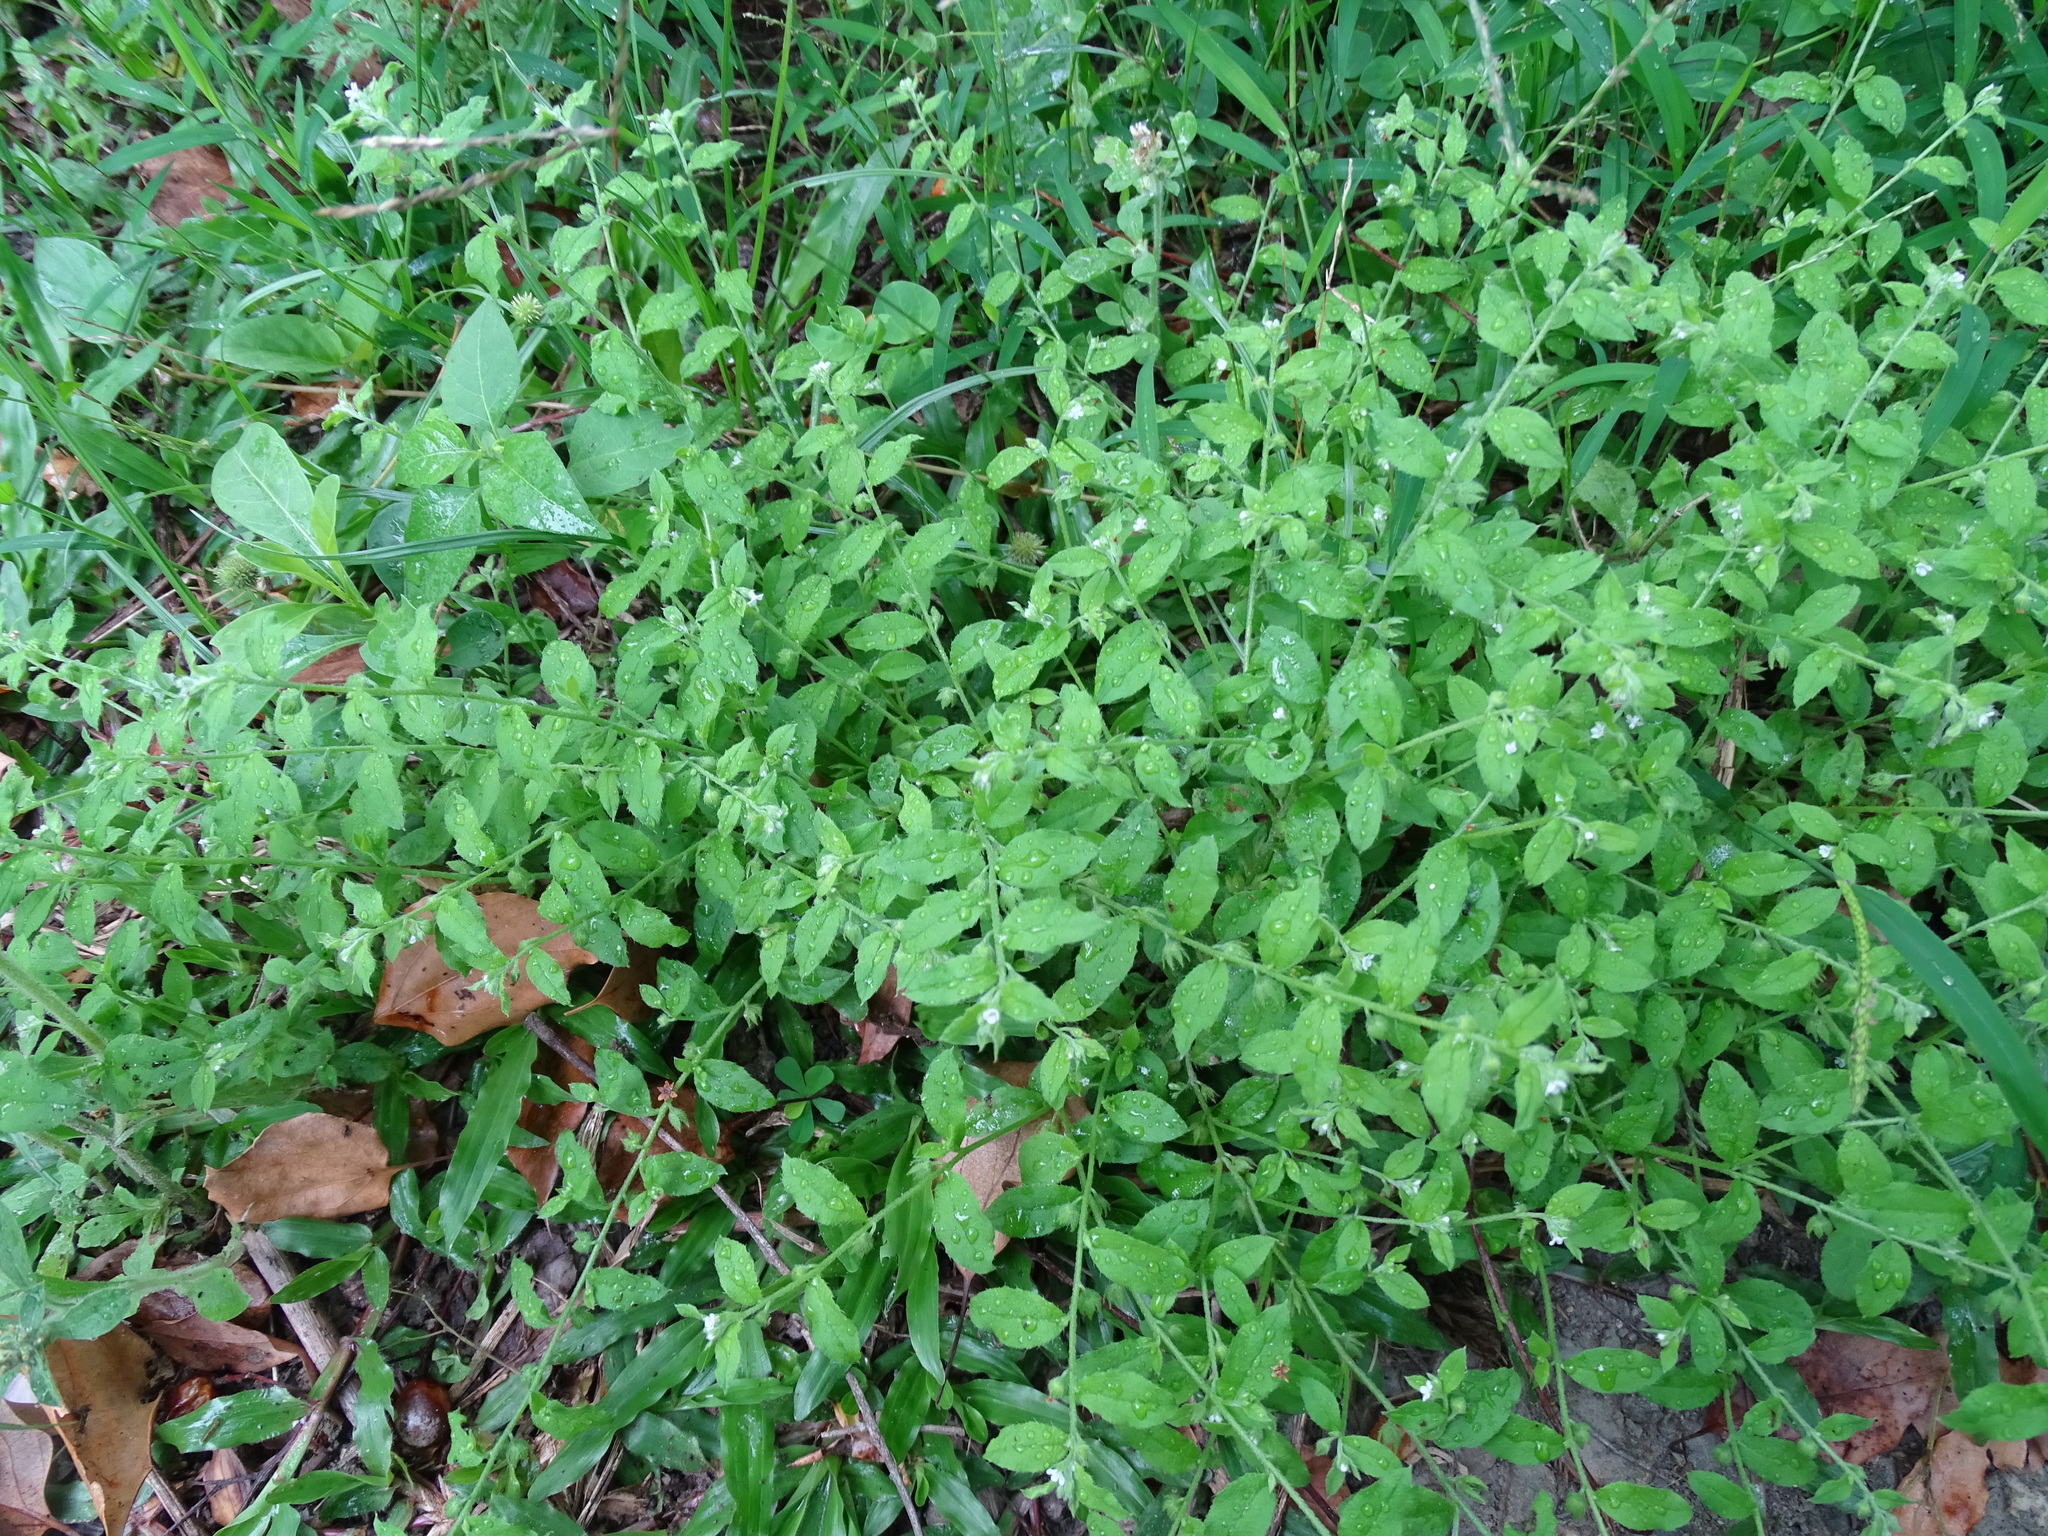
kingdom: Plantae
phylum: Tracheophyta
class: Magnoliopsida
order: Boraginales
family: Boraginaceae
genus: Bothriospermum
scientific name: Bothriospermum zeylanicum
